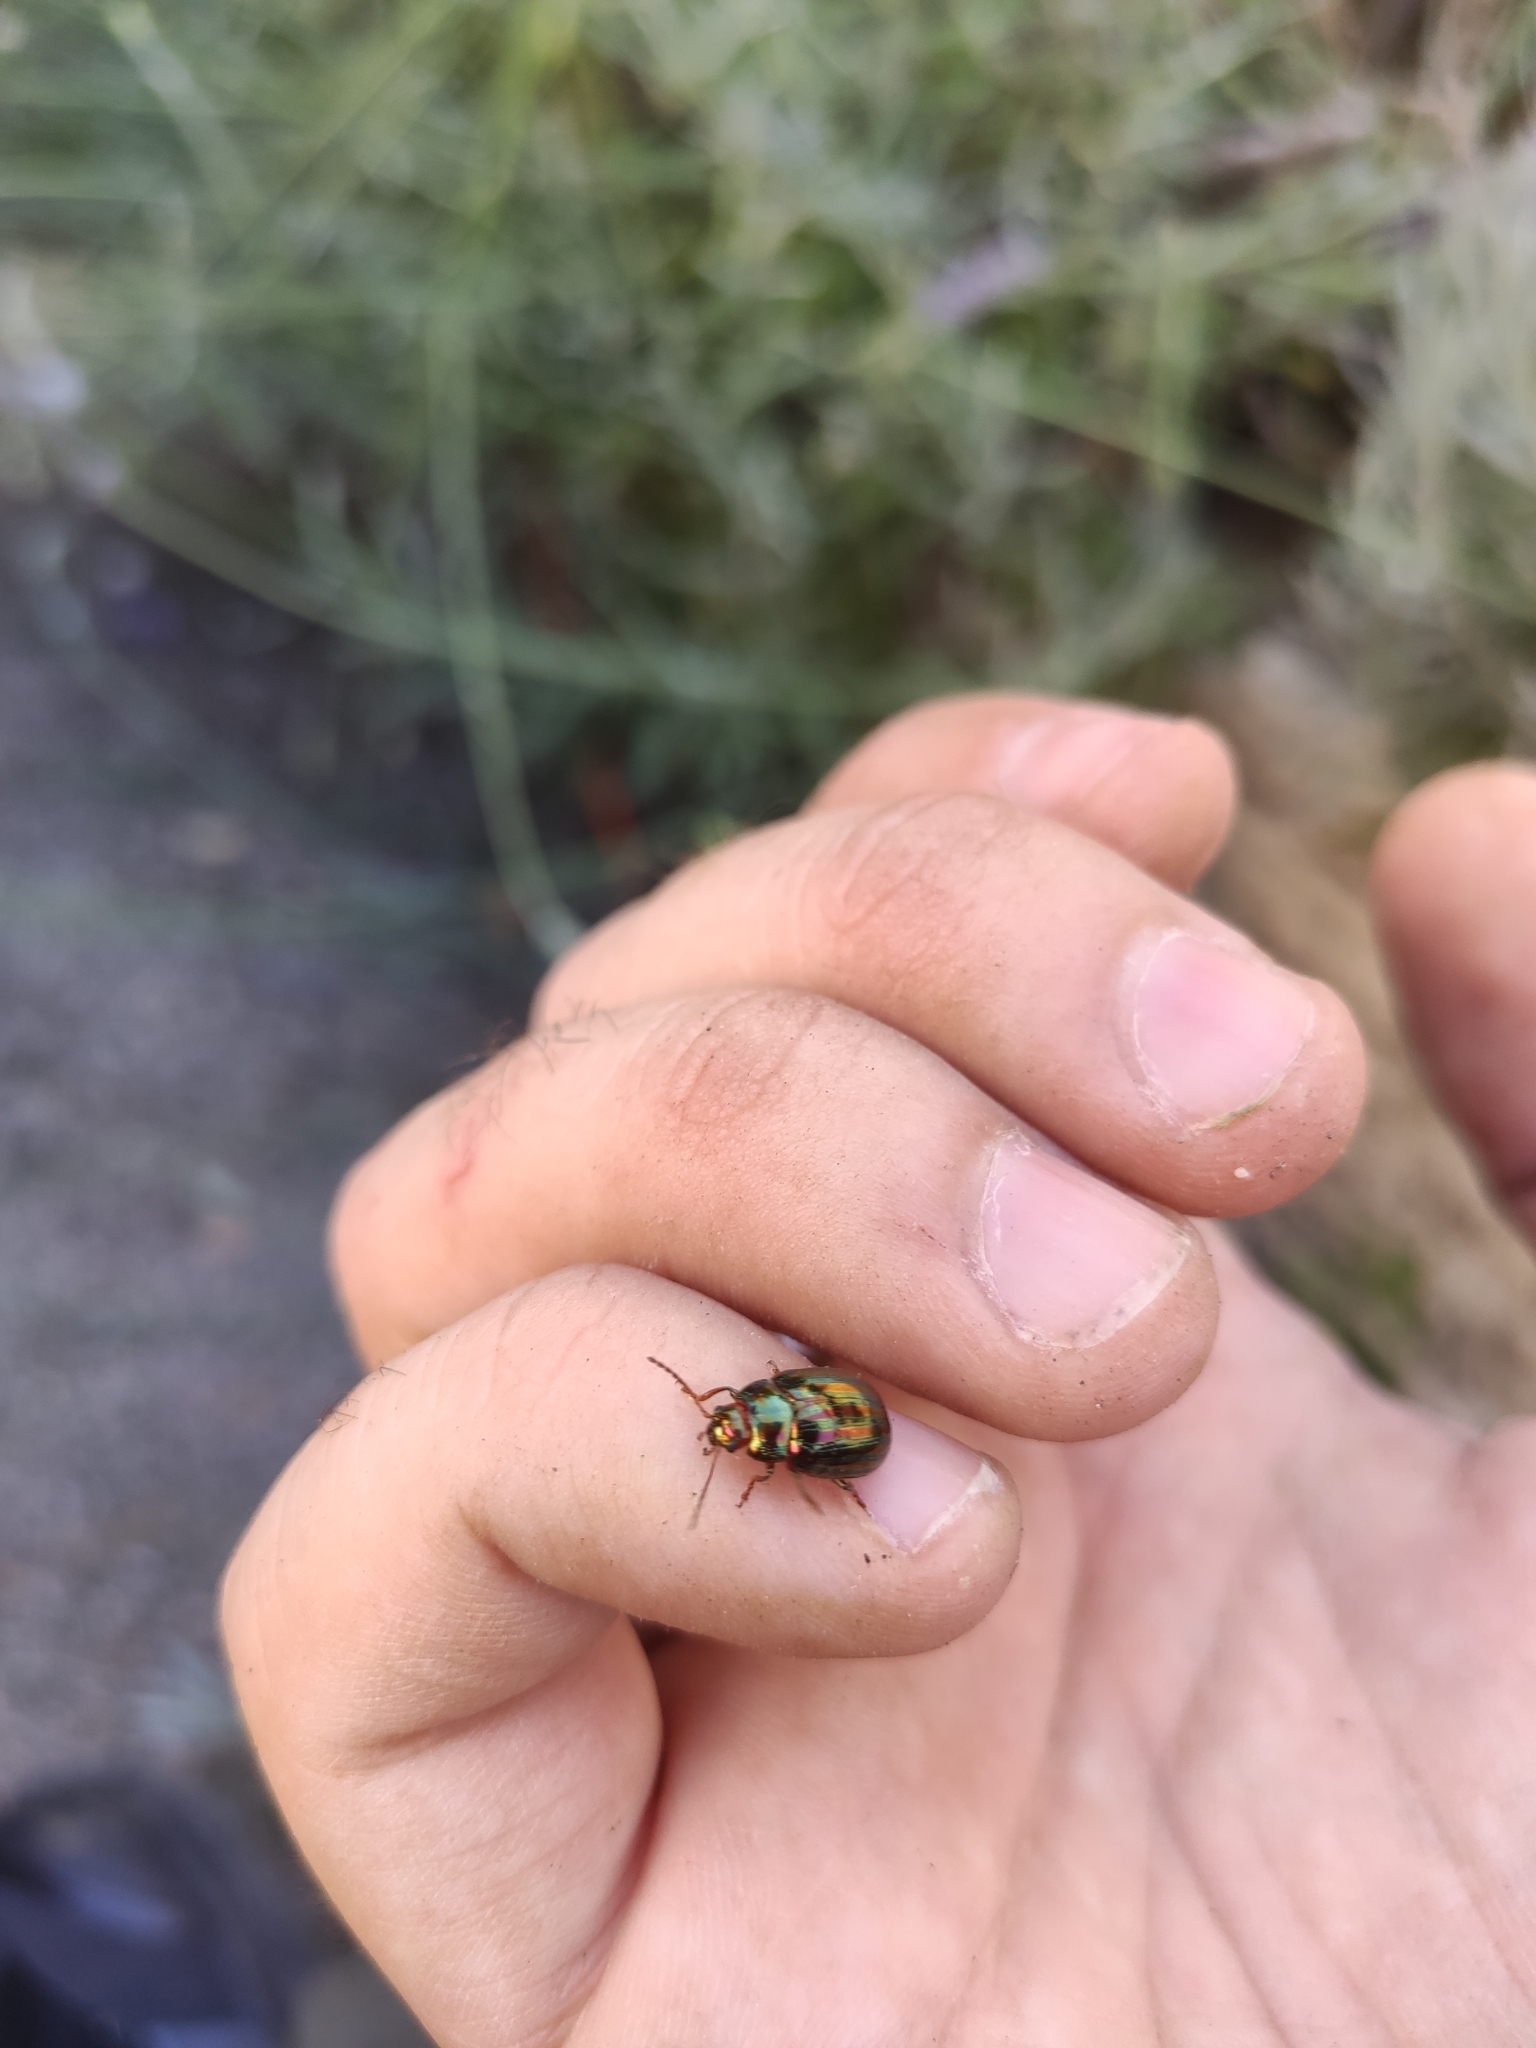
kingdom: Animalia
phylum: Arthropoda
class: Insecta
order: Coleoptera
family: Chrysomelidae
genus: Chrysolina
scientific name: Chrysolina americana
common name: Rosemary beetle
